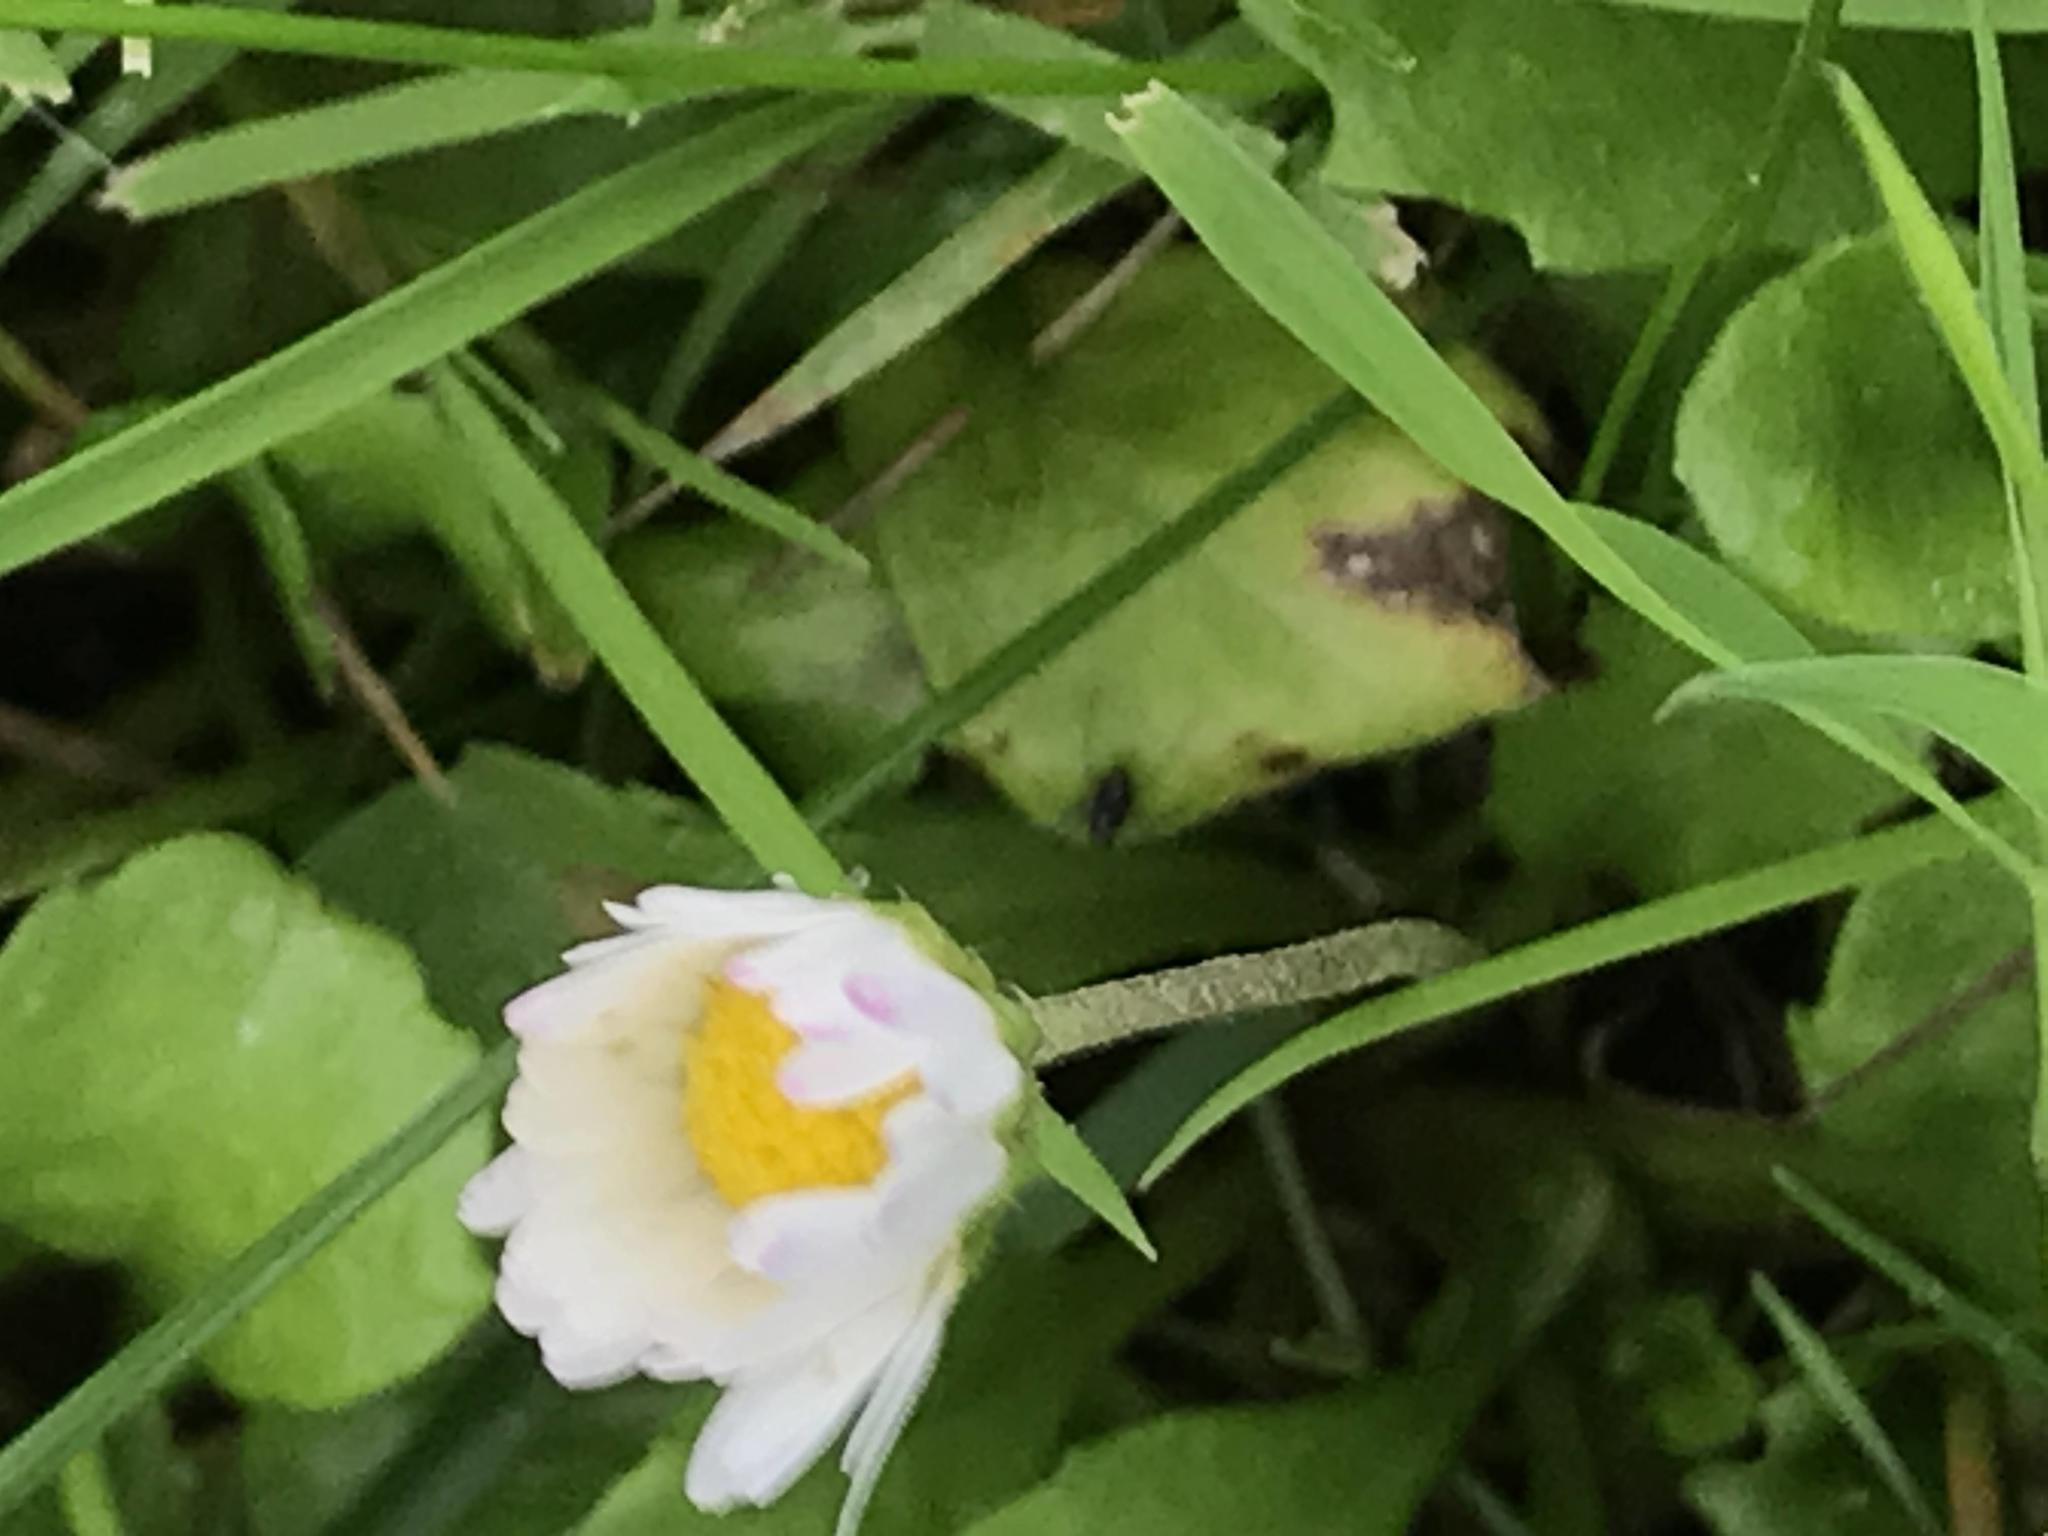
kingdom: Plantae
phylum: Tracheophyta
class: Magnoliopsida
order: Asterales
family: Asteraceae
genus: Bellis
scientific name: Bellis perennis
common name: Lawndaisy
